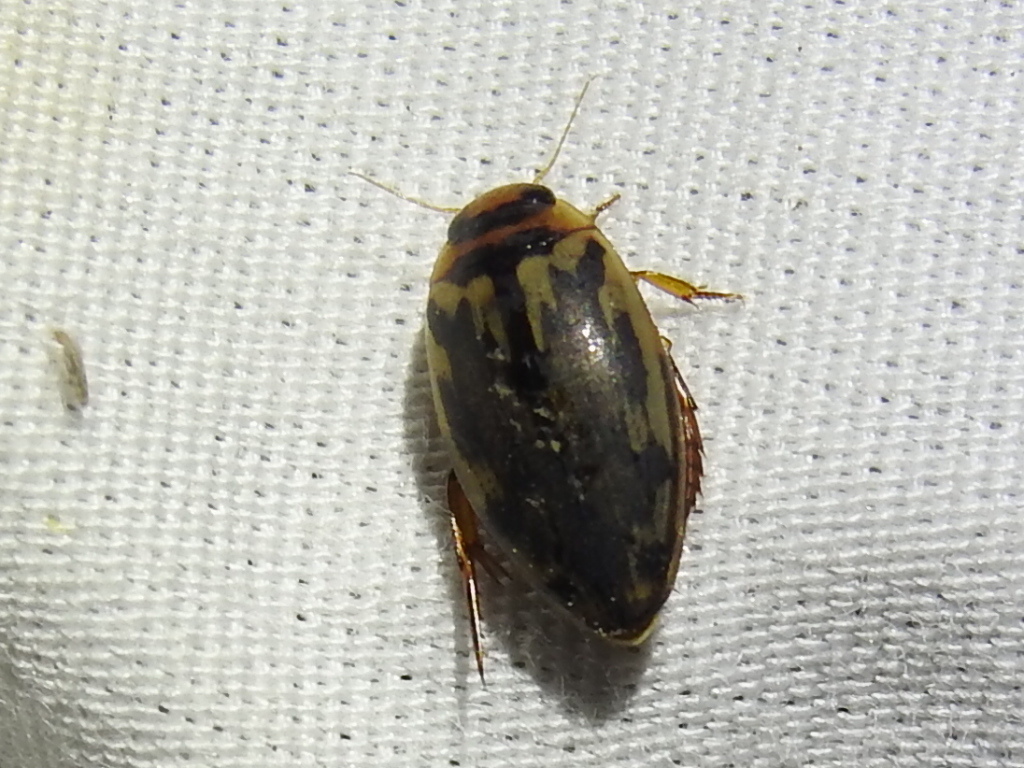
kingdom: Animalia
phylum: Arthropoda
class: Insecta
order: Coleoptera
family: Dytiscidae
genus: Coptotomus
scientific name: Coptotomus
